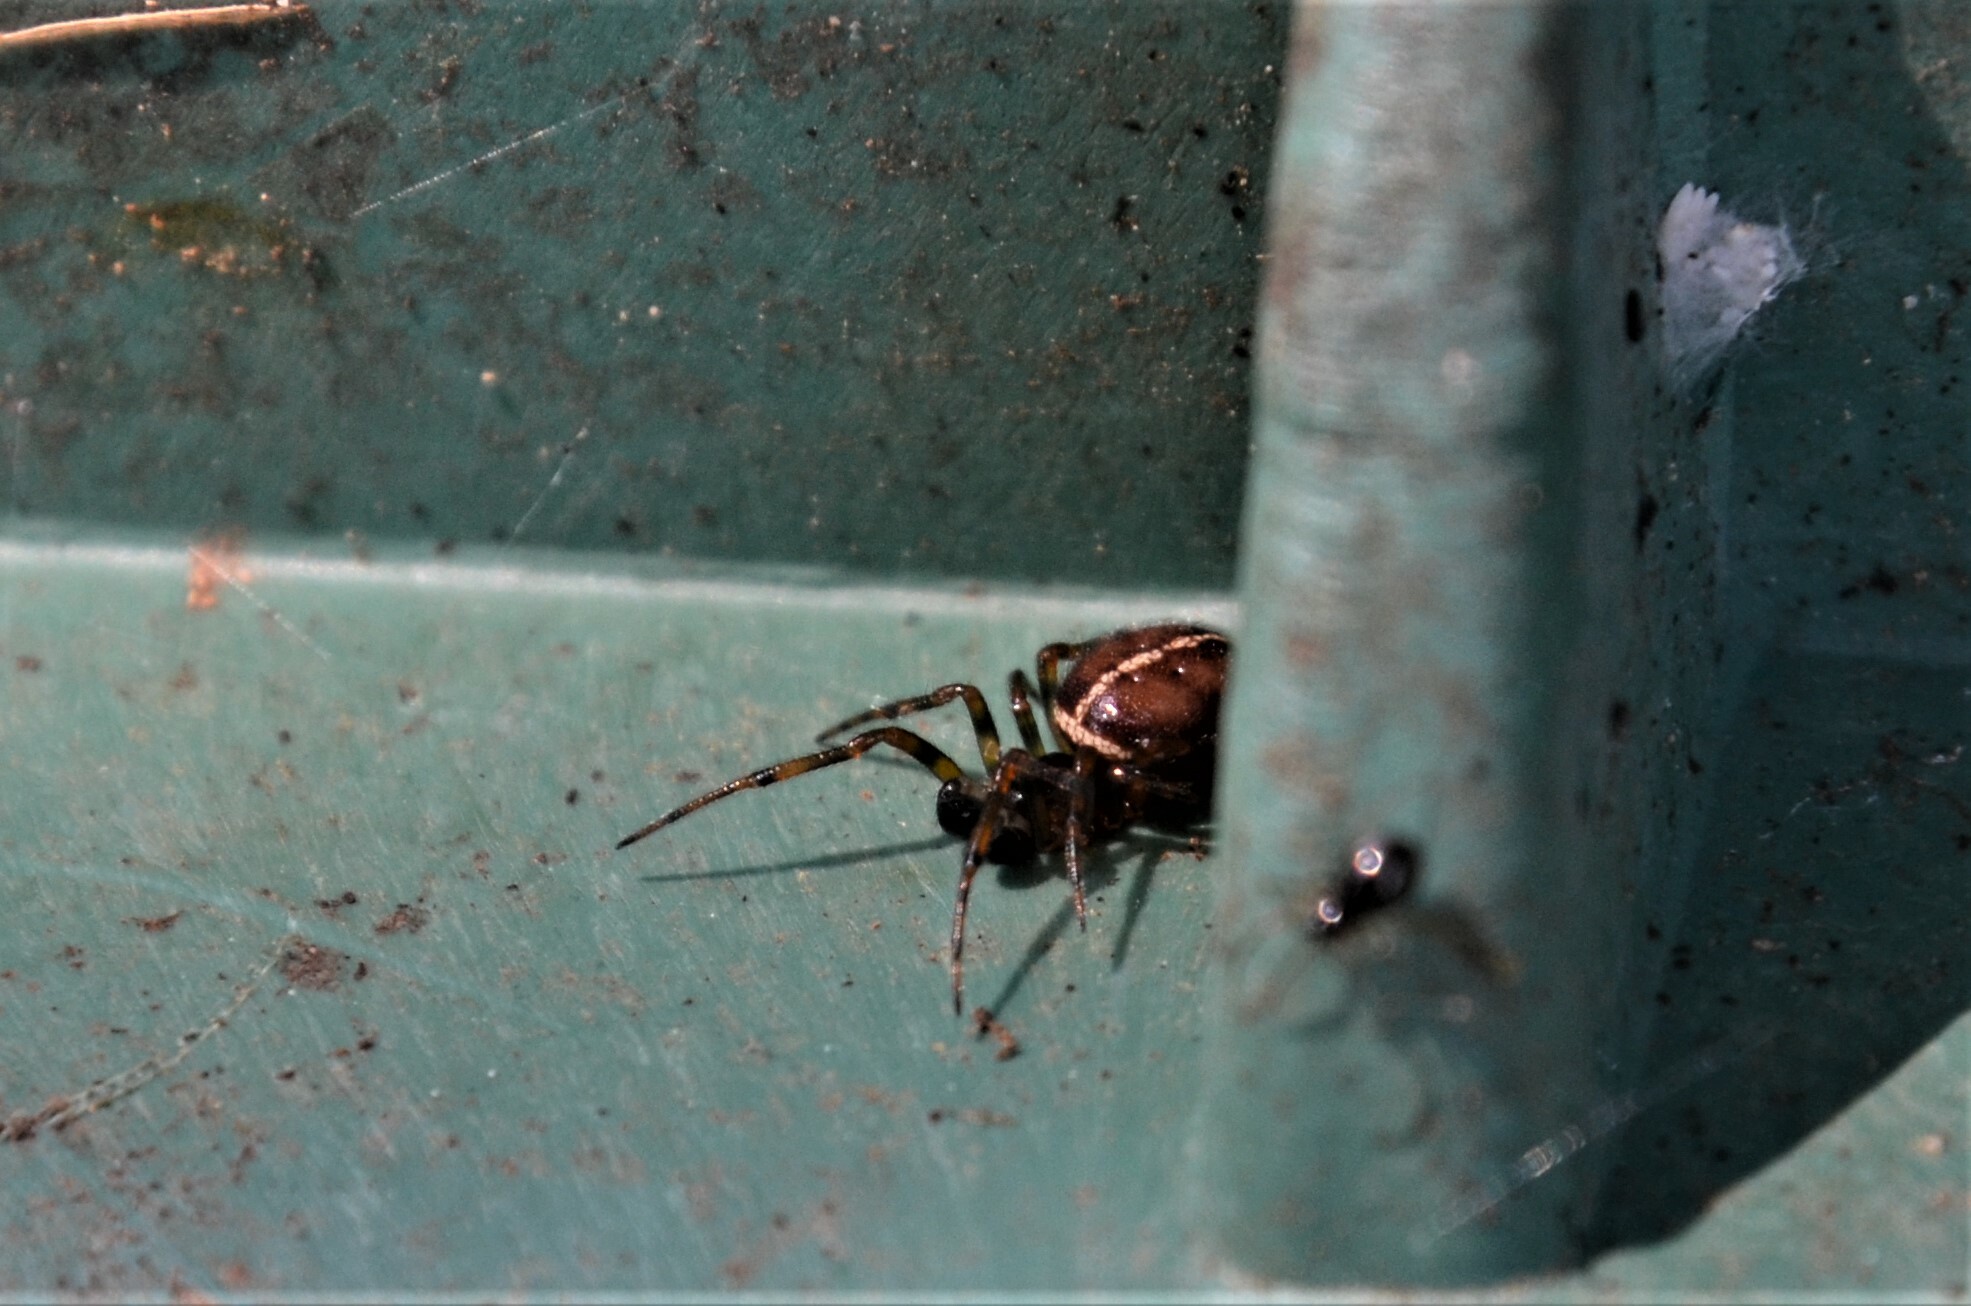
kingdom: Animalia
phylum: Arthropoda
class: Arachnida
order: Araneae
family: Theridiidae
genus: Steatoda
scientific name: Steatoda bipunctata
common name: False widow
